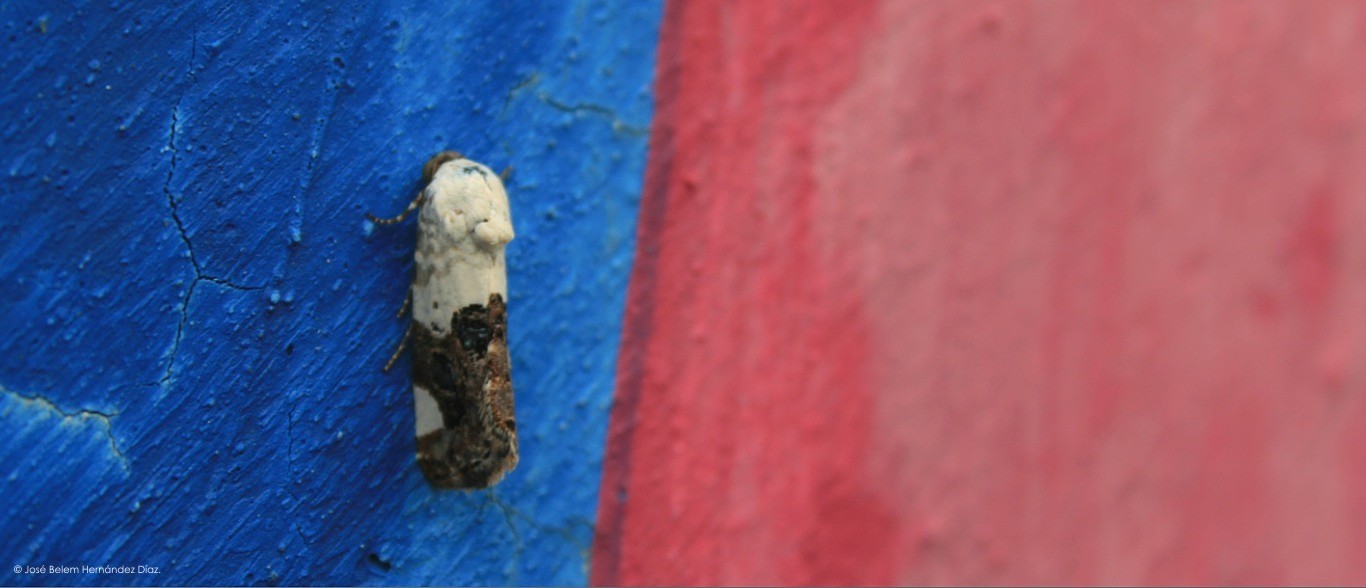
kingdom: Animalia
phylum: Arthropoda
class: Insecta
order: Lepidoptera
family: Noctuidae
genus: Acontia
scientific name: Acontia aprica
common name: Nun
